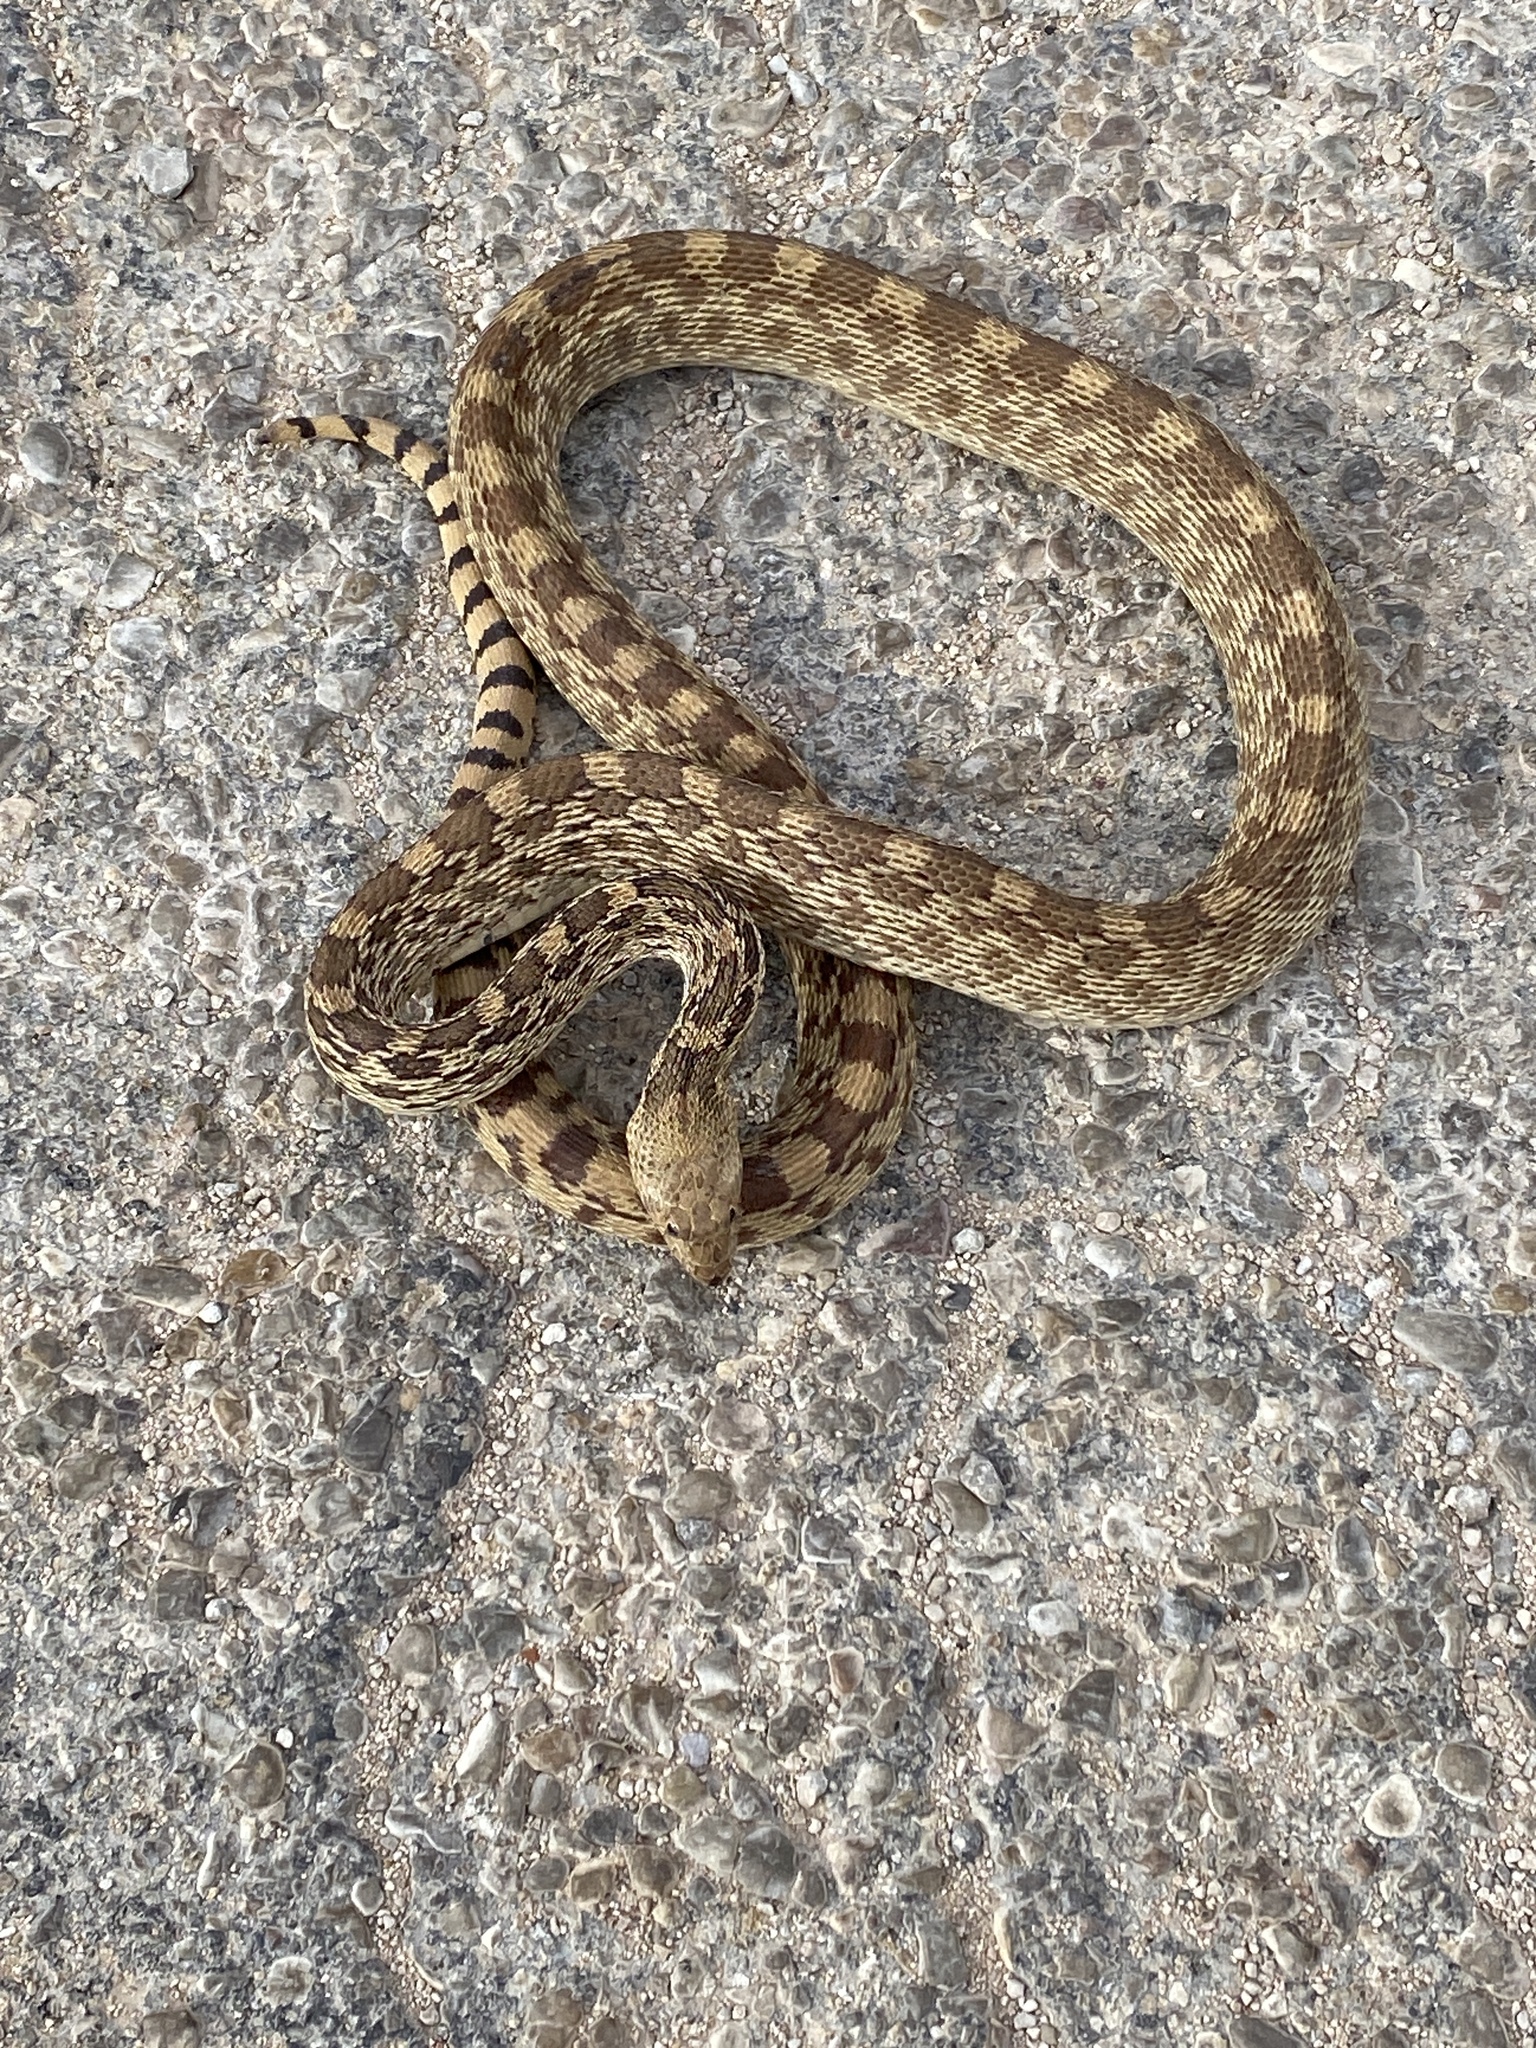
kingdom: Animalia
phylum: Chordata
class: Squamata
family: Colubridae
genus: Pituophis
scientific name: Pituophis catenifer
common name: Gopher snake
